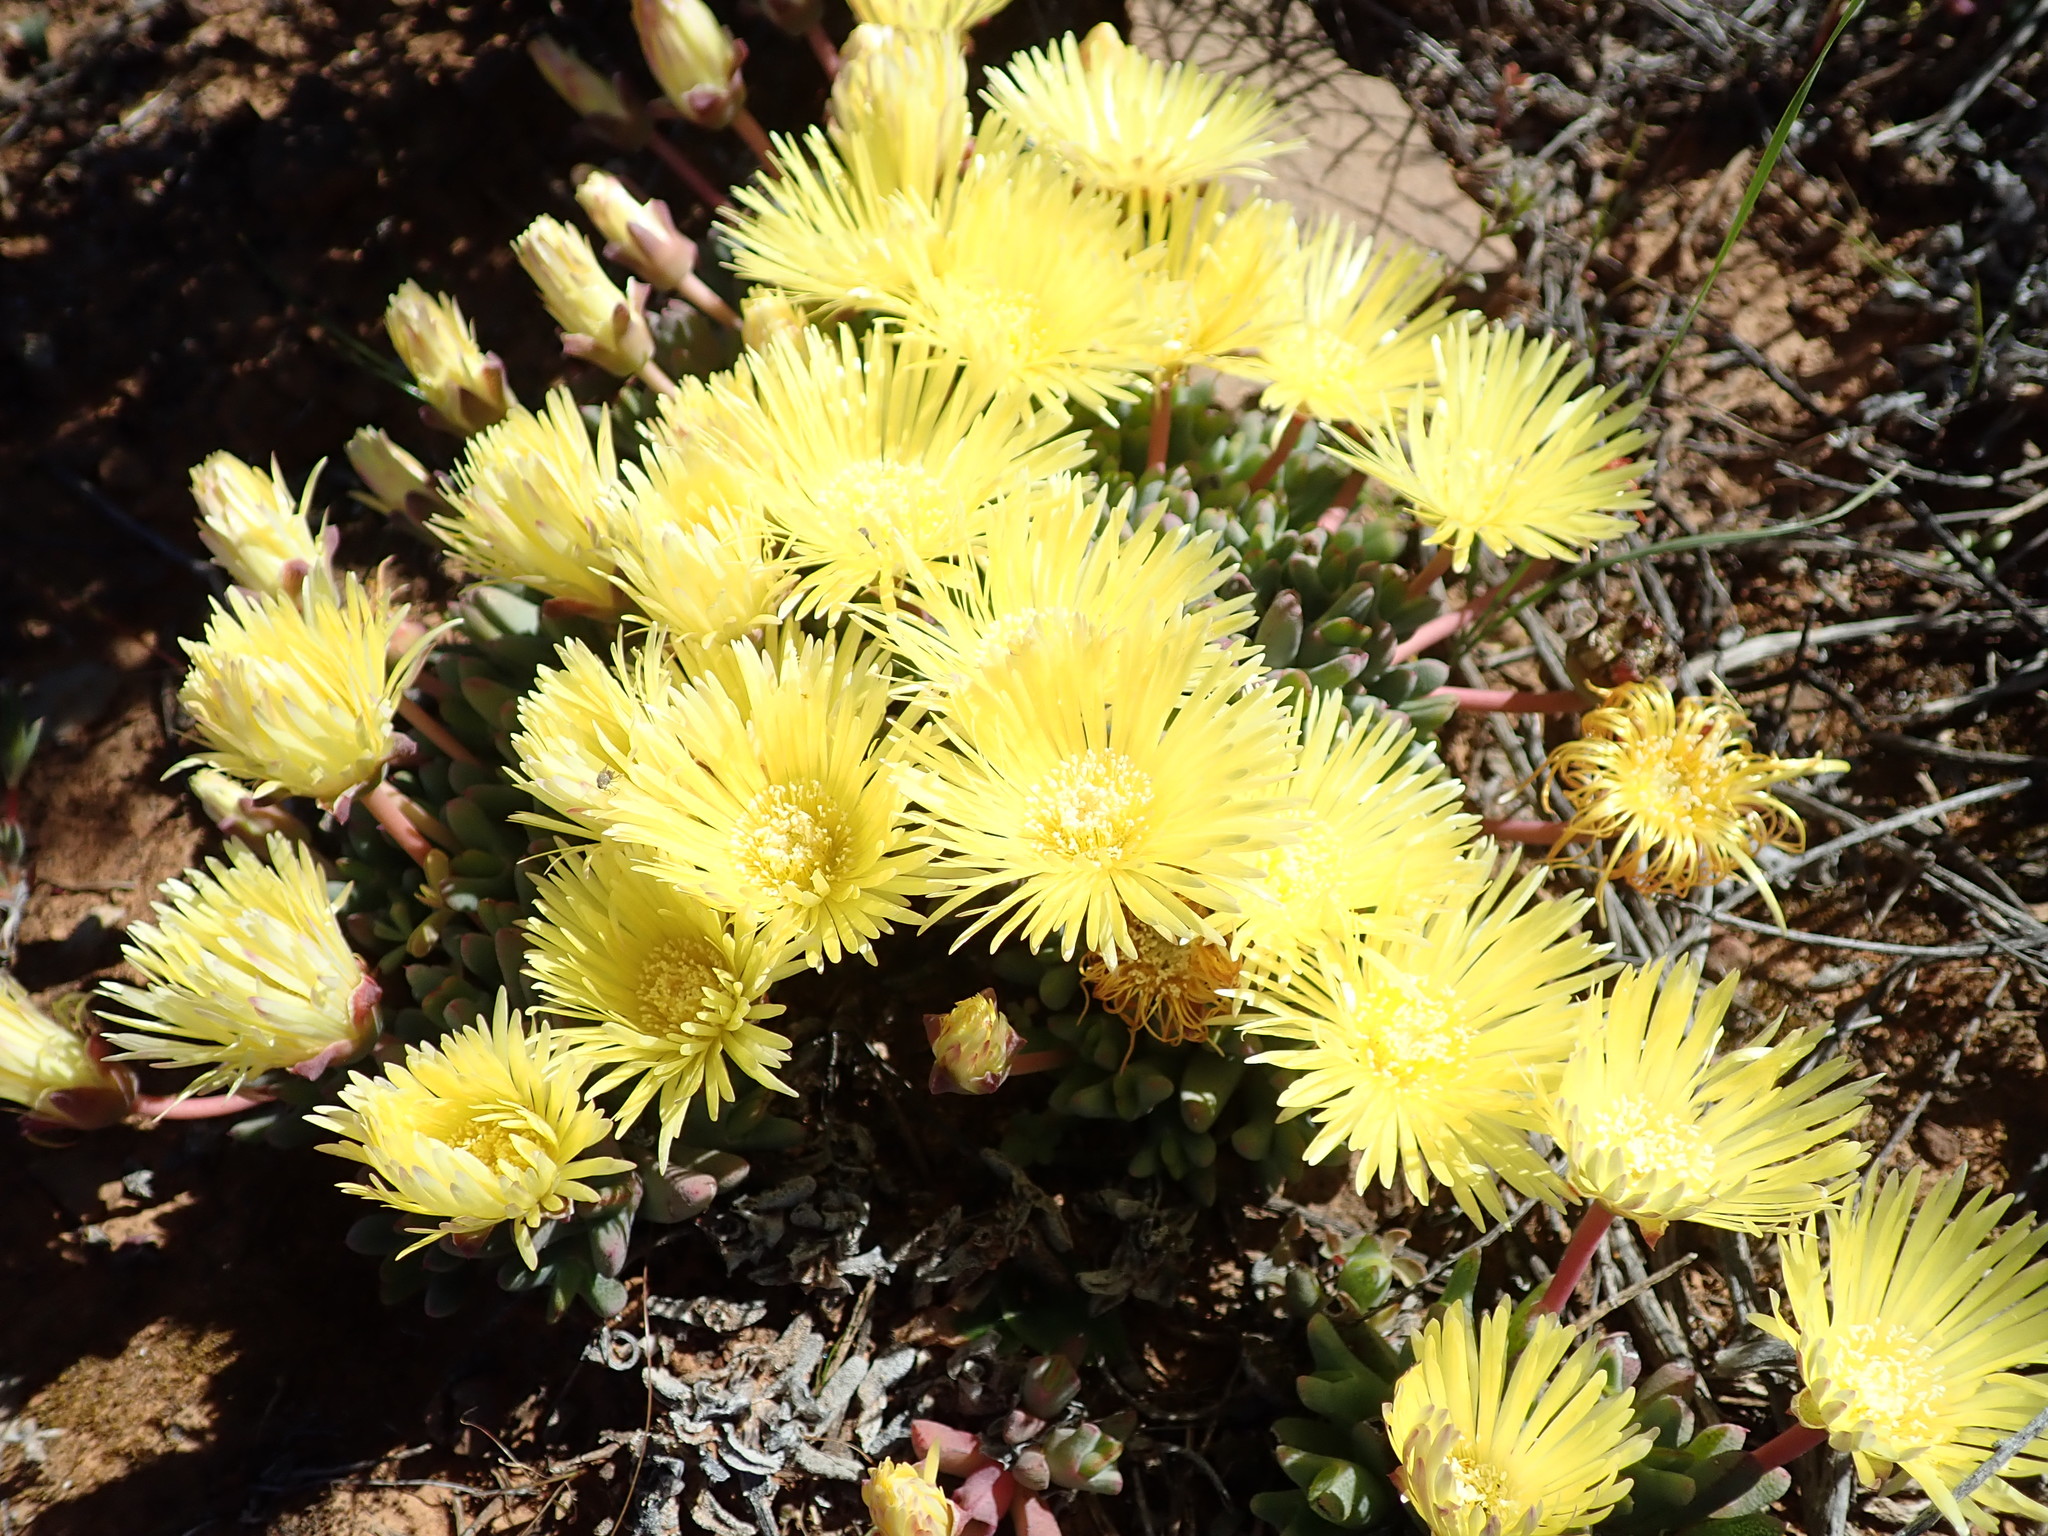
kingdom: Plantae
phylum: Tracheophyta
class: Magnoliopsida
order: Caryophyllales
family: Aizoaceae
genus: Cheiridopsis
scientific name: Cheiridopsis namaquensis
